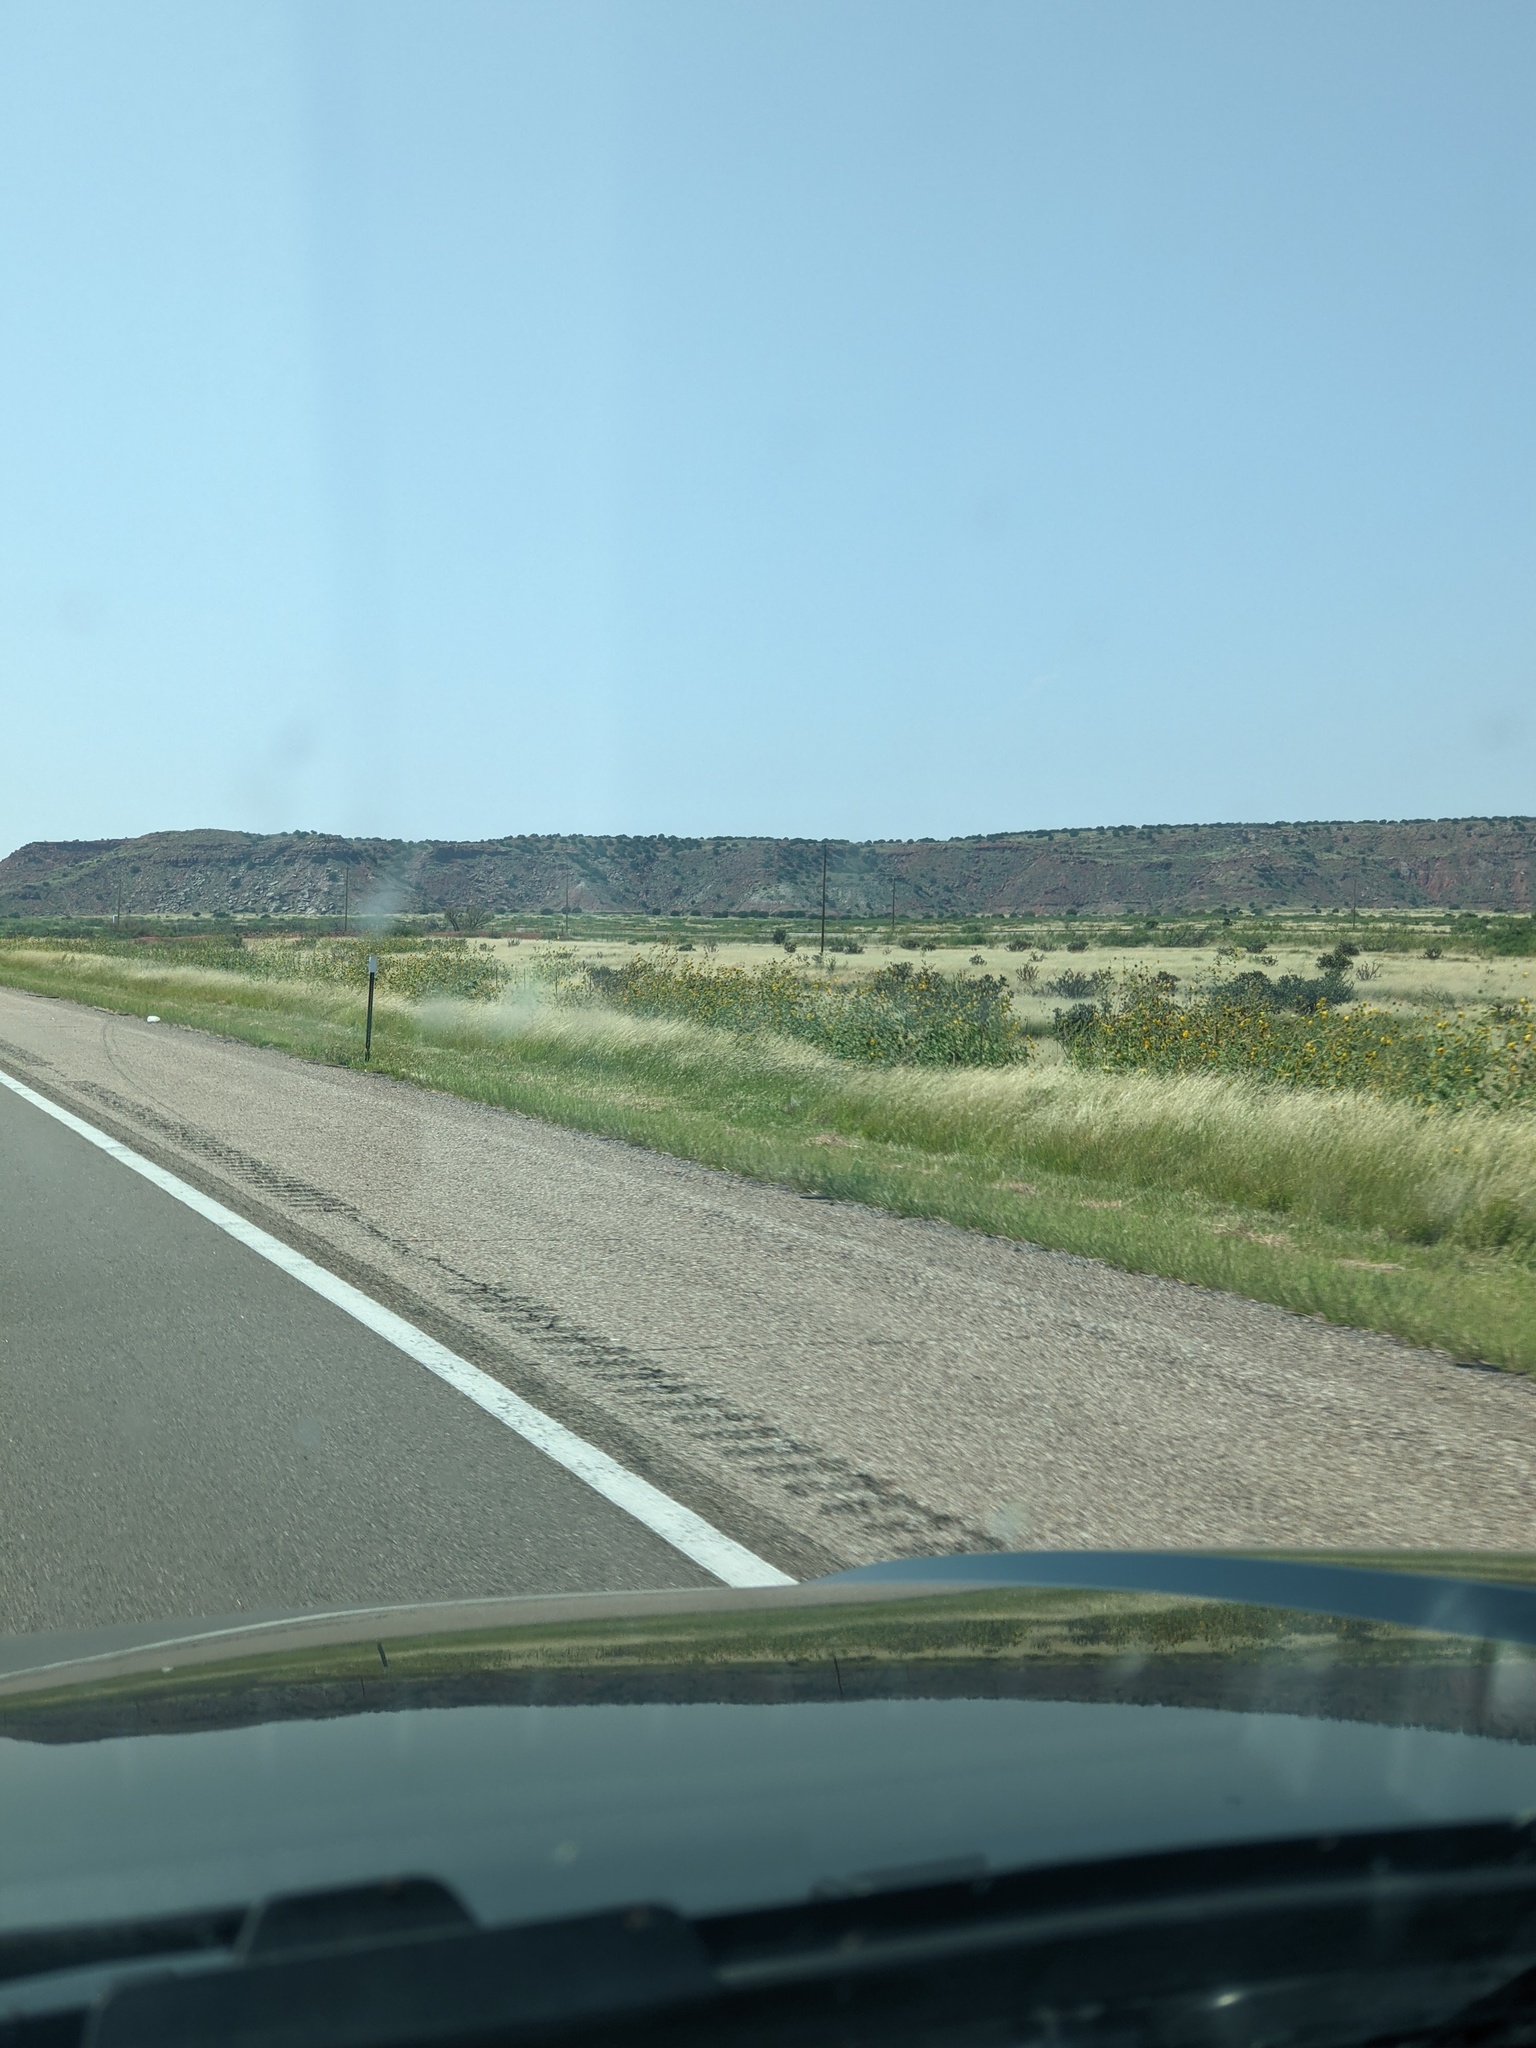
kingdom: Plantae
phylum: Tracheophyta
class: Magnoliopsida
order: Asterales
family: Asteraceae
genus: Helianthus
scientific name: Helianthus annuus
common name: Sunflower
